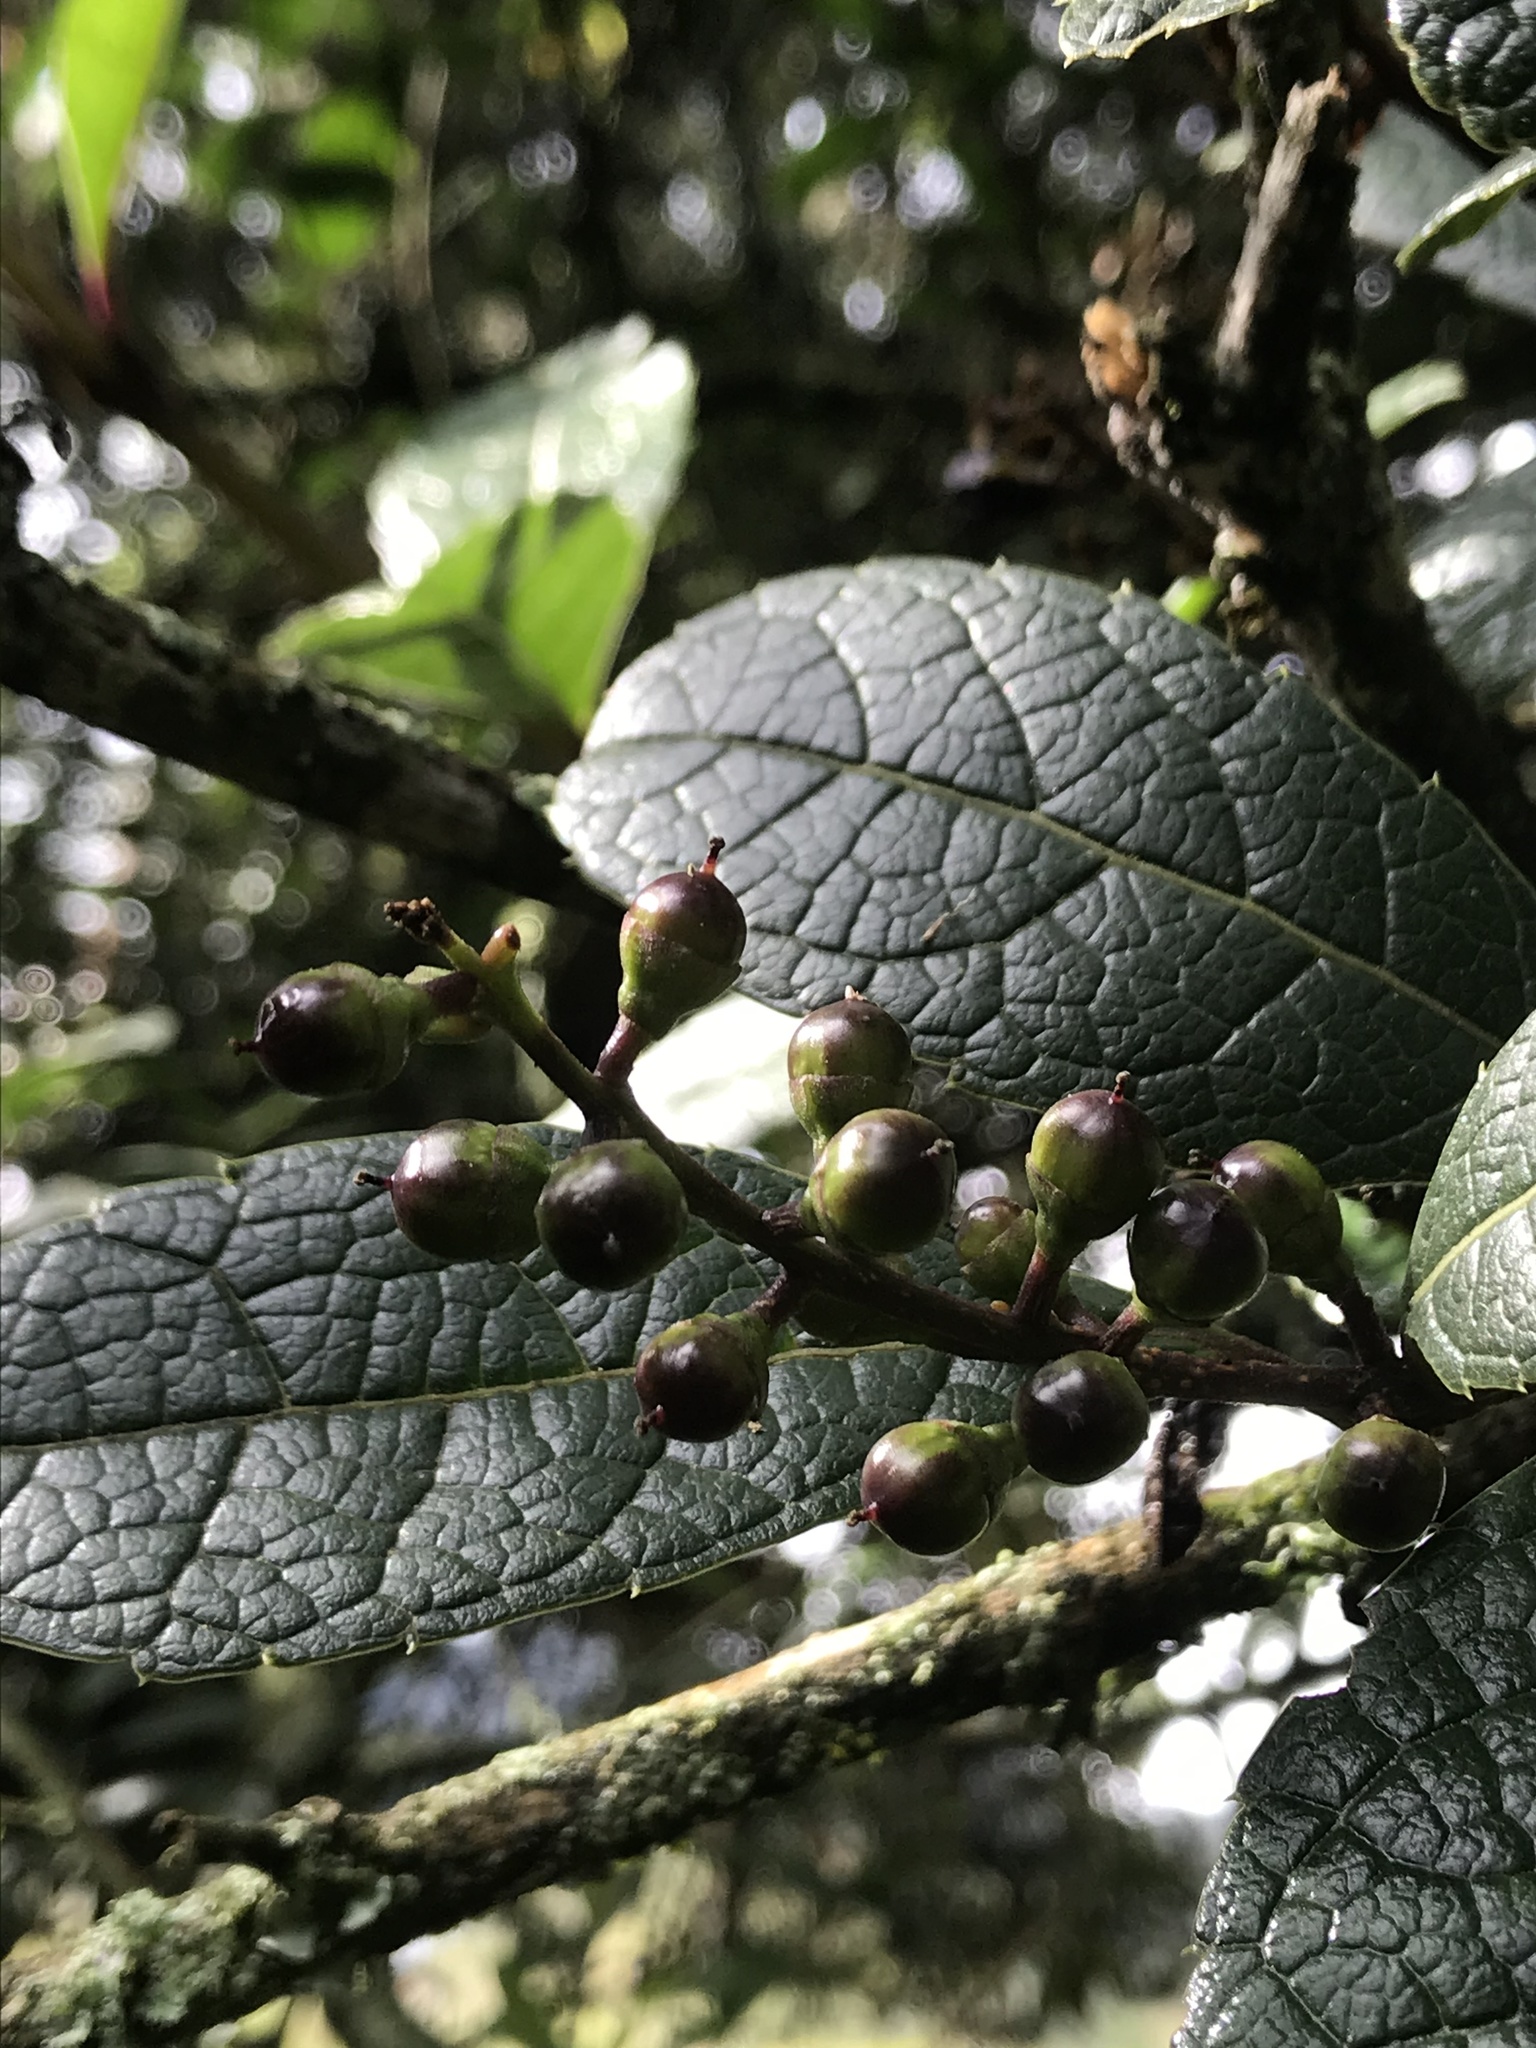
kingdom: Plantae
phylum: Tracheophyta
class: Magnoliopsida
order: Lamiales
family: Verbenaceae
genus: Citharexylum
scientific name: Citharexylum reticulatum
